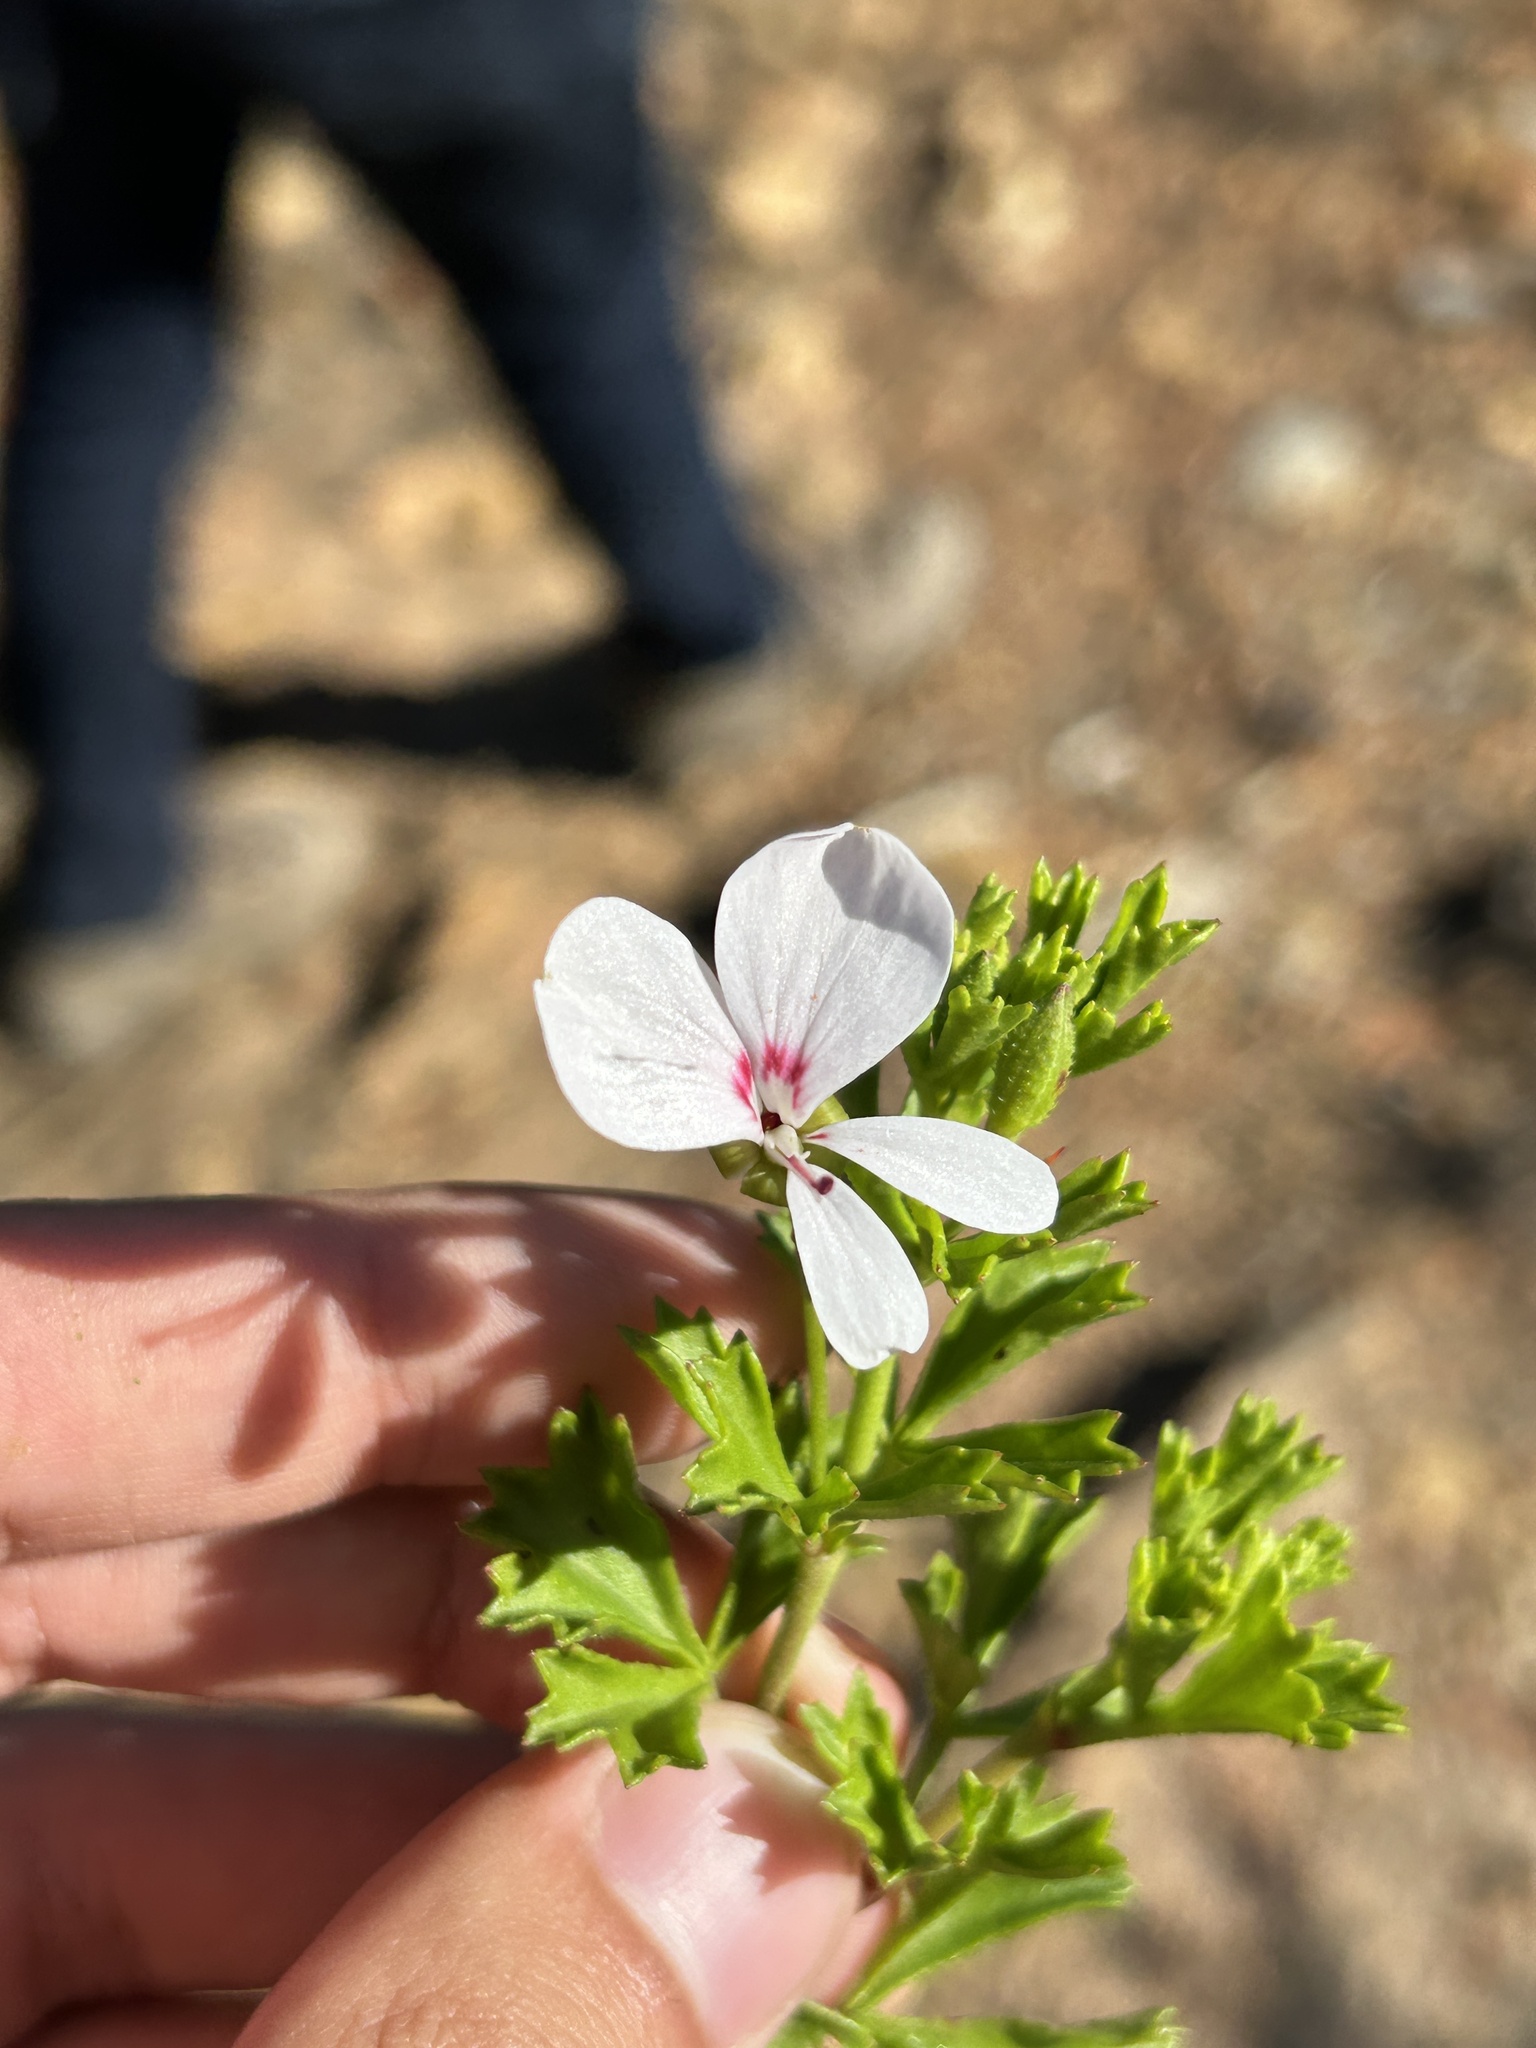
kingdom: Plantae
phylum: Tracheophyta
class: Magnoliopsida
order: Geraniales
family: Geraniaceae
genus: Pelargonium
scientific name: Pelargonium ternatum
